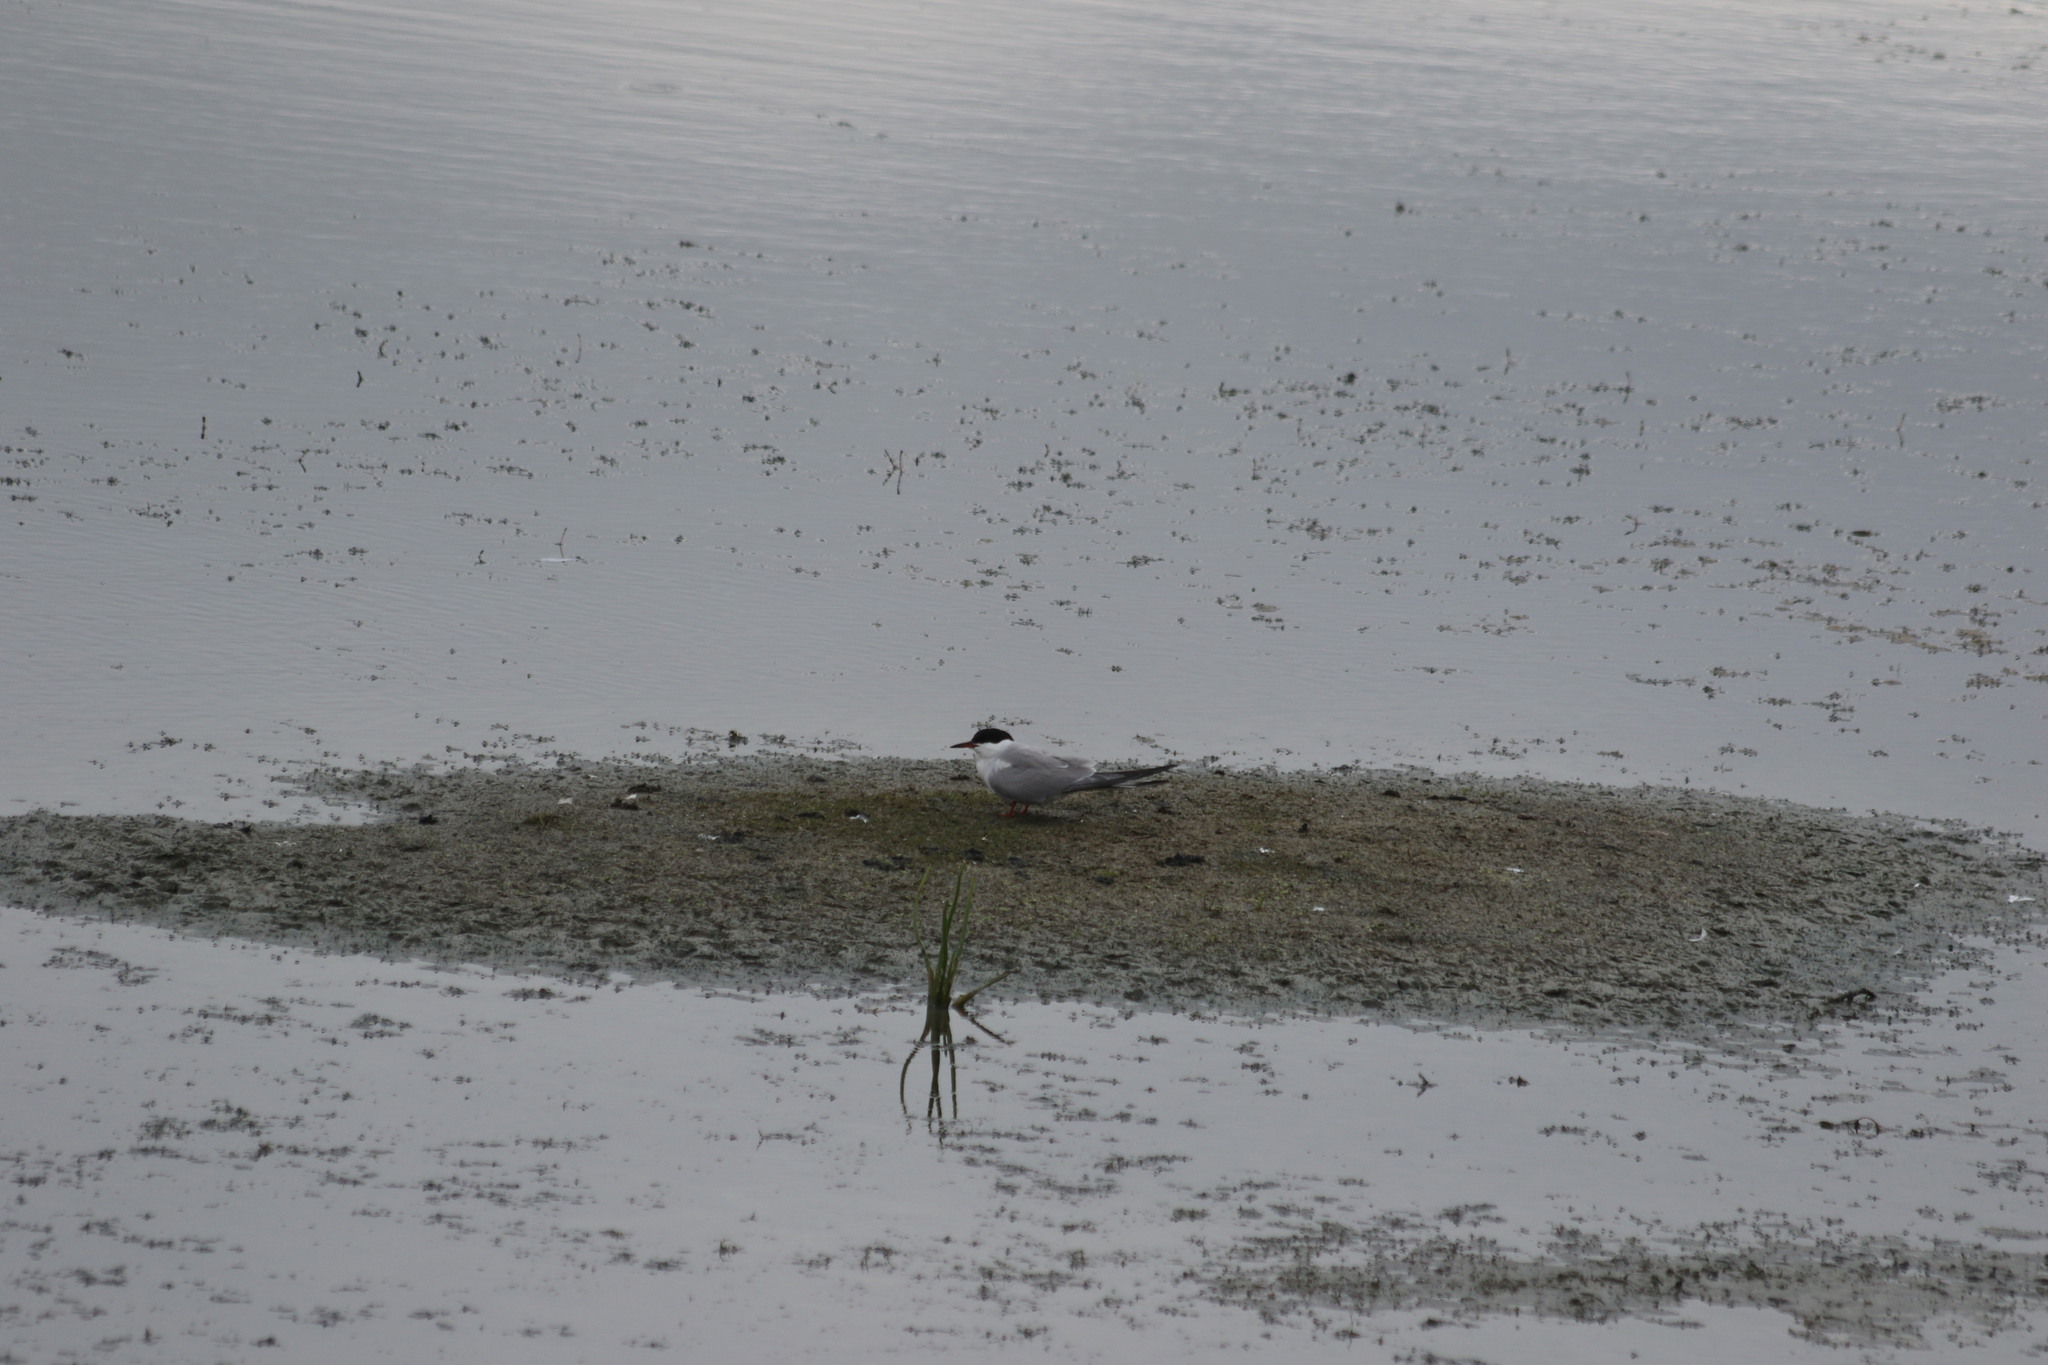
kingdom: Animalia
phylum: Chordata
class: Aves
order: Charadriiformes
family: Laridae
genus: Sterna
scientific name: Sterna hirundo
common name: Common tern
